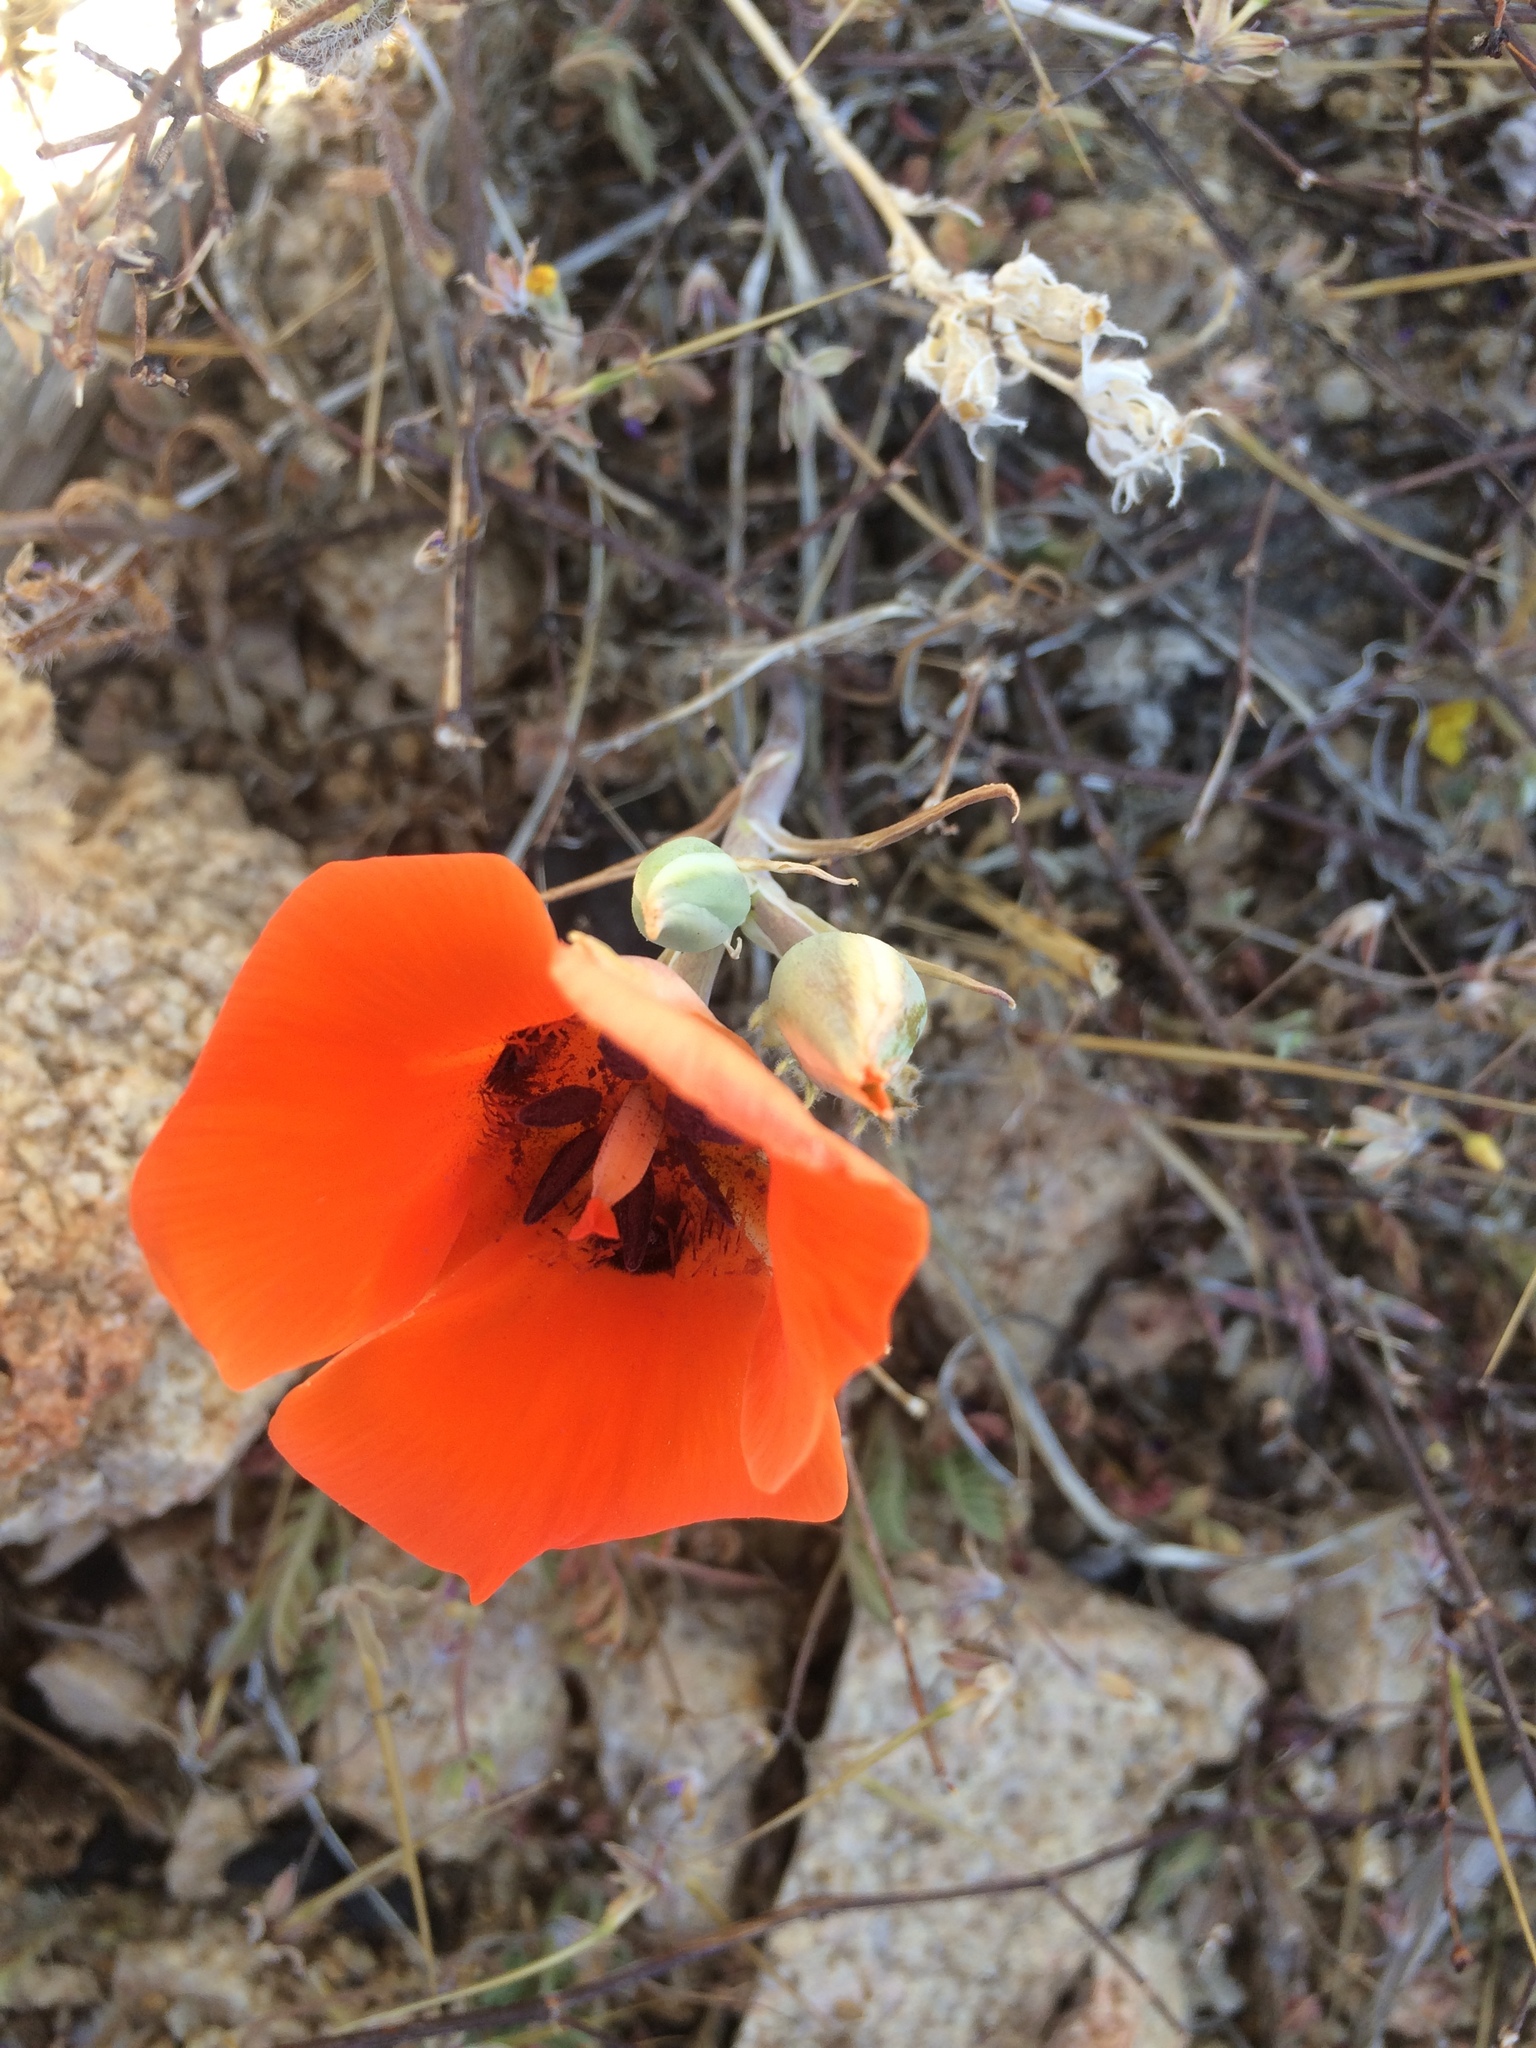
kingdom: Plantae
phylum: Tracheophyta
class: Liliopsida
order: Liliales
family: Liliaceae
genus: Calochortus
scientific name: Calochortus kennedyi
